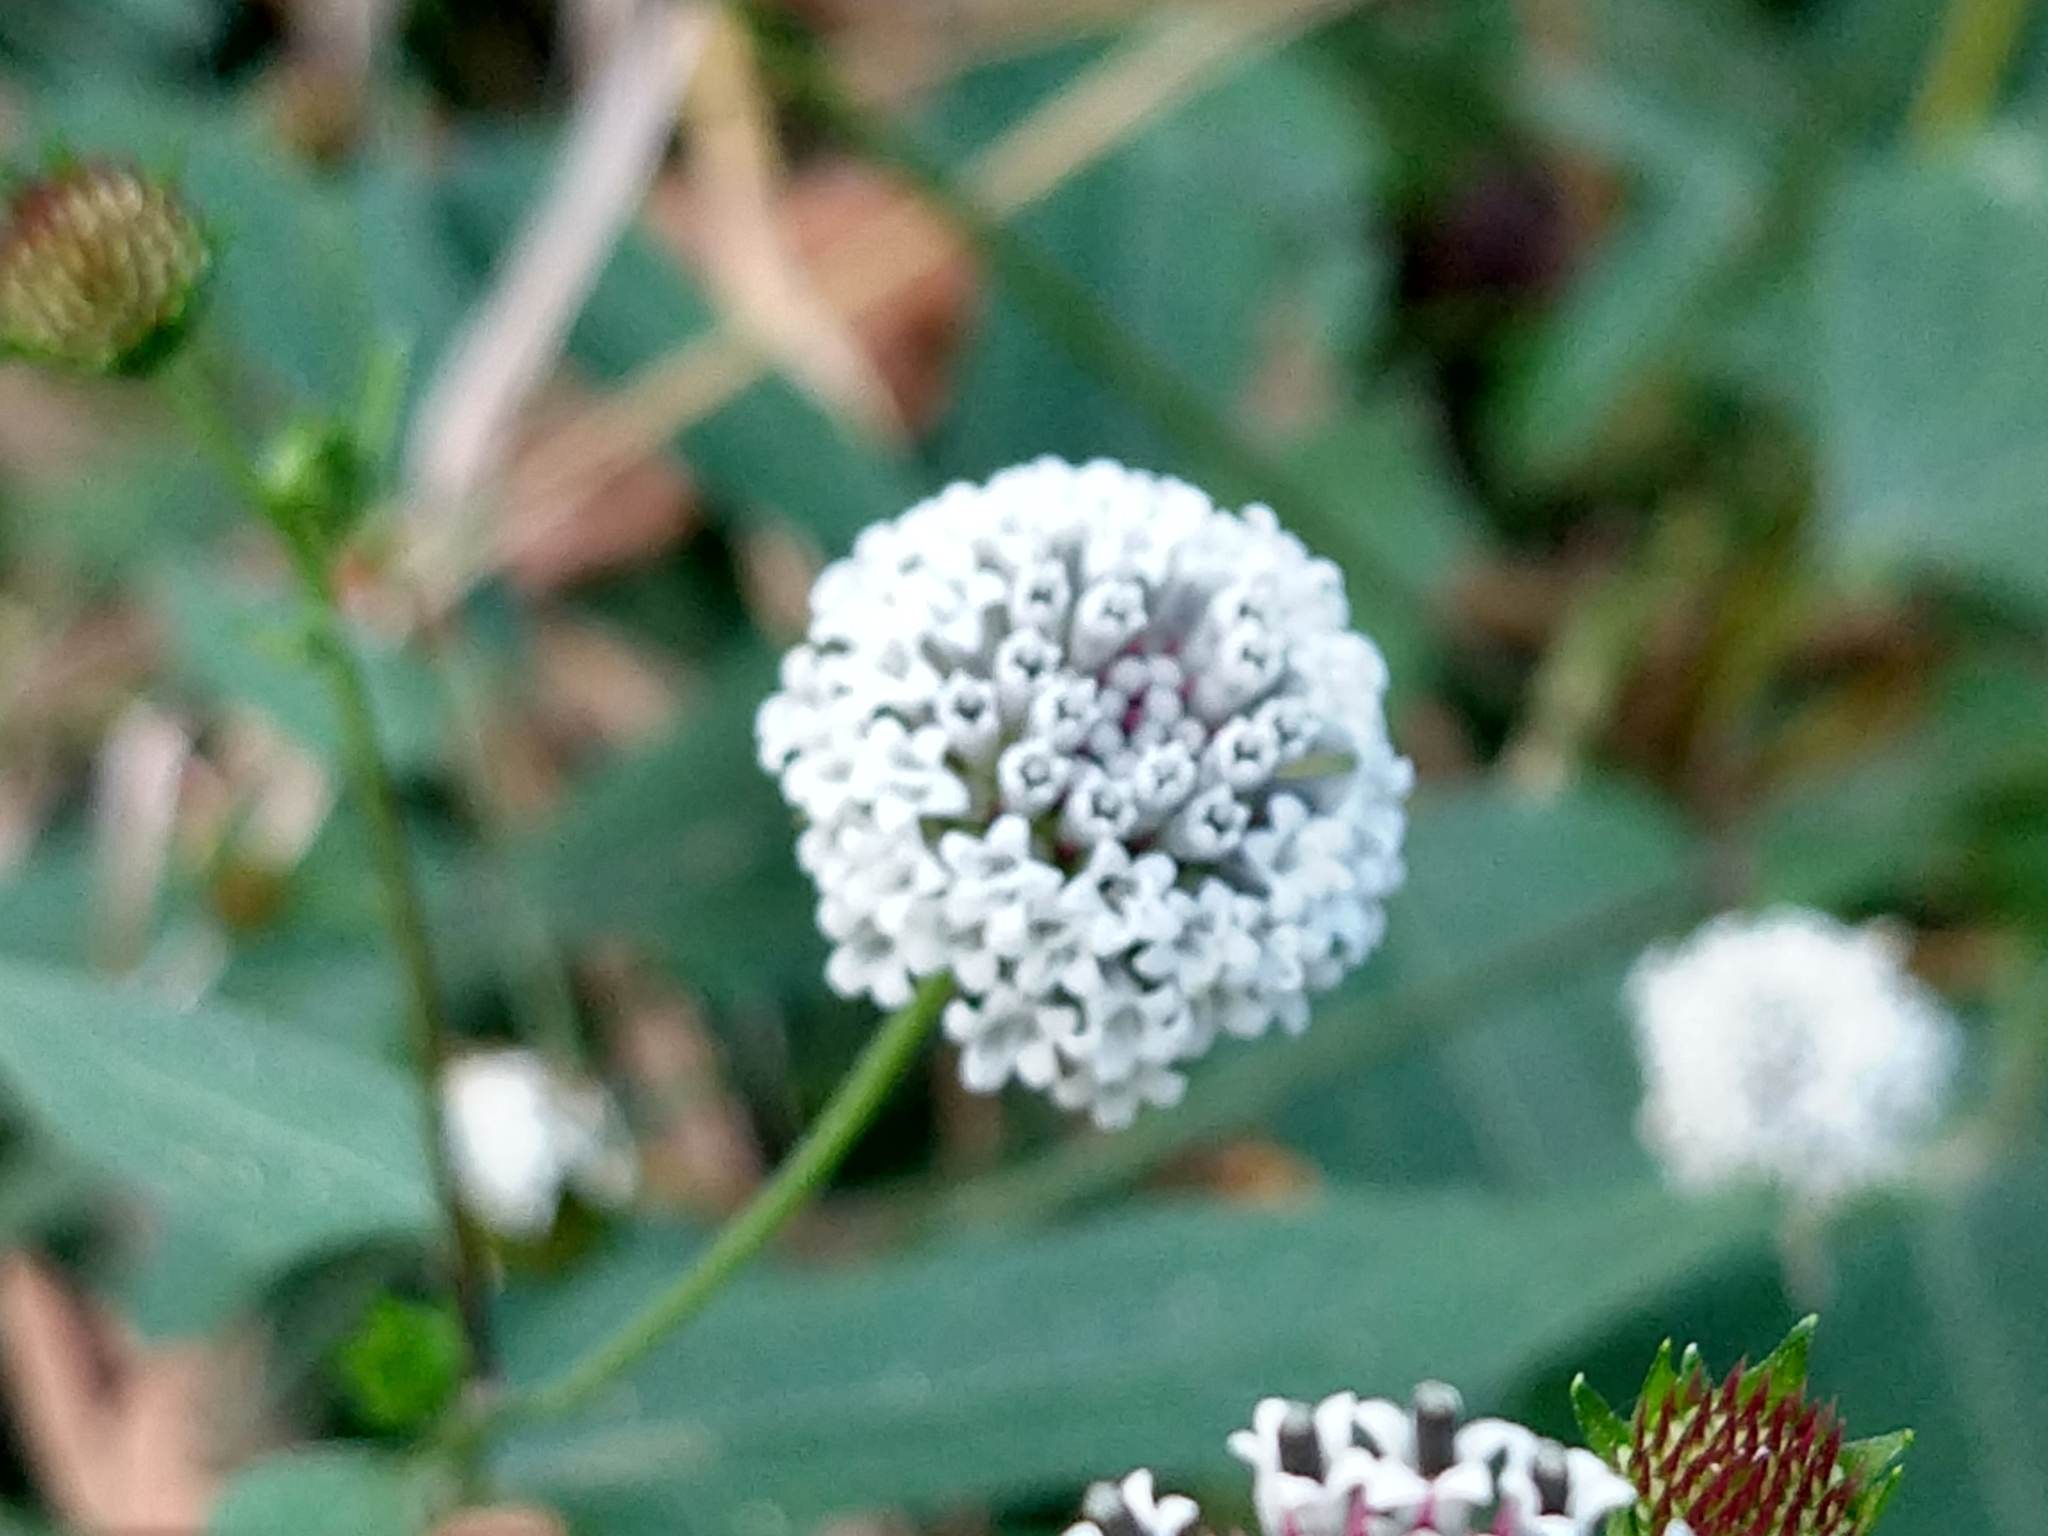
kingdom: Plantae
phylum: Tracheophyta
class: Magnoliopsida
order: Asterales
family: Asteraceae
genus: Melanthera
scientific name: Melanthera nivea
